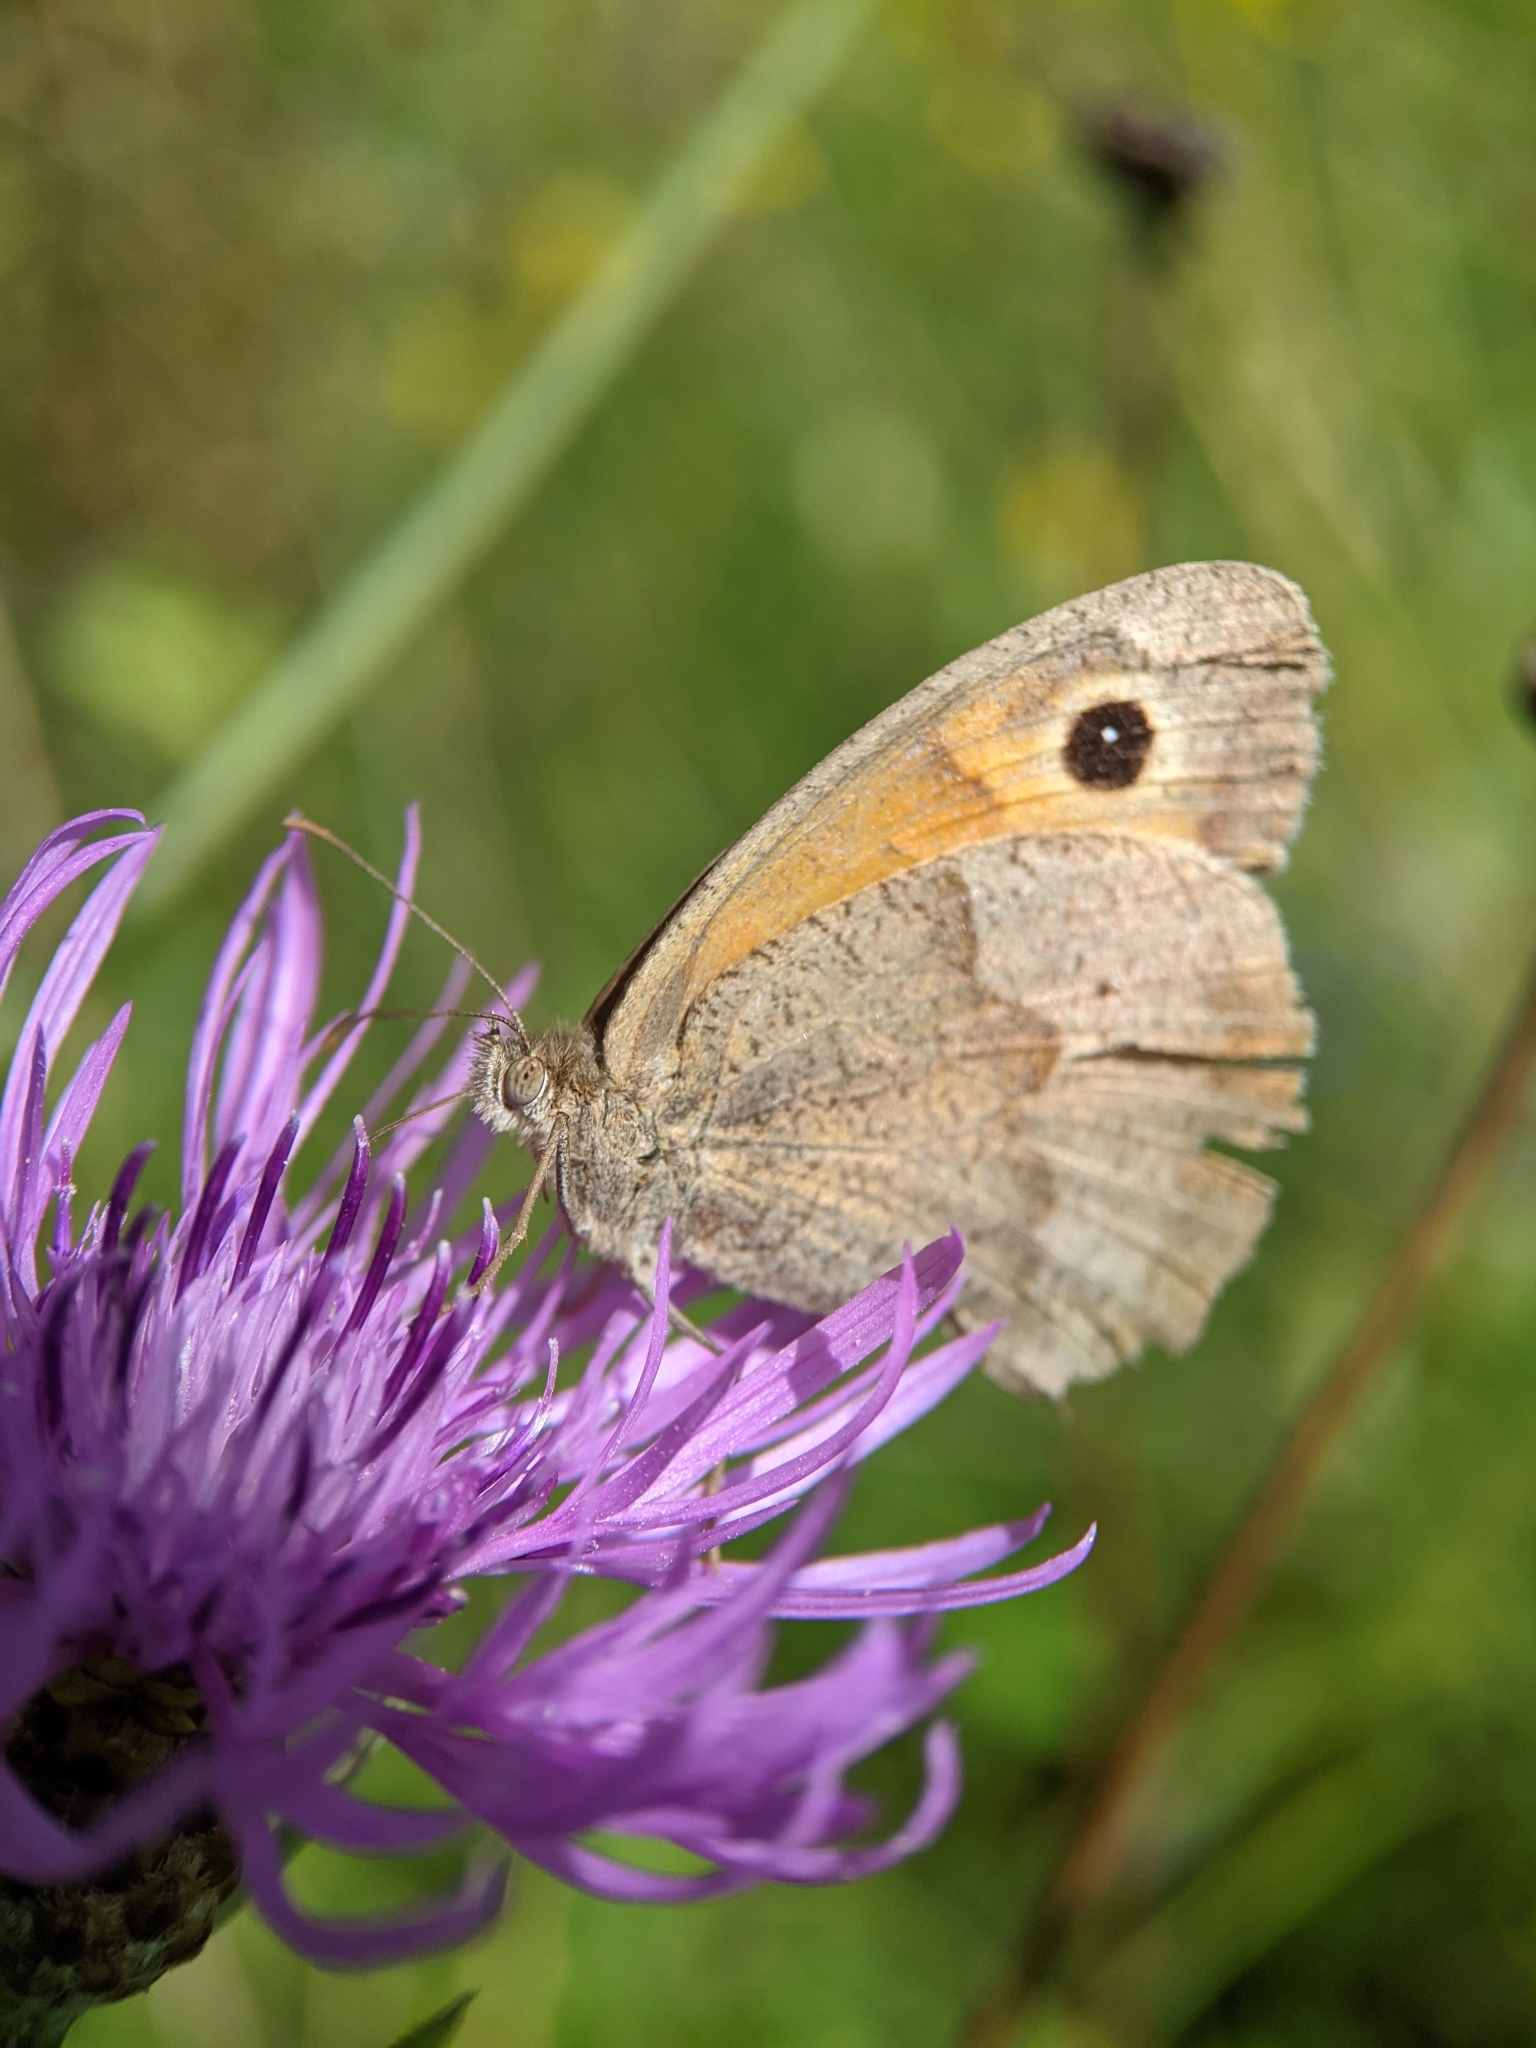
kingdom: Animalia
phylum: Arthropoda
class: Insecta
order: Lepidoptera
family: Nymphalidae
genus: Maniola
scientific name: Maniola jurtina
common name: Meadow brown
